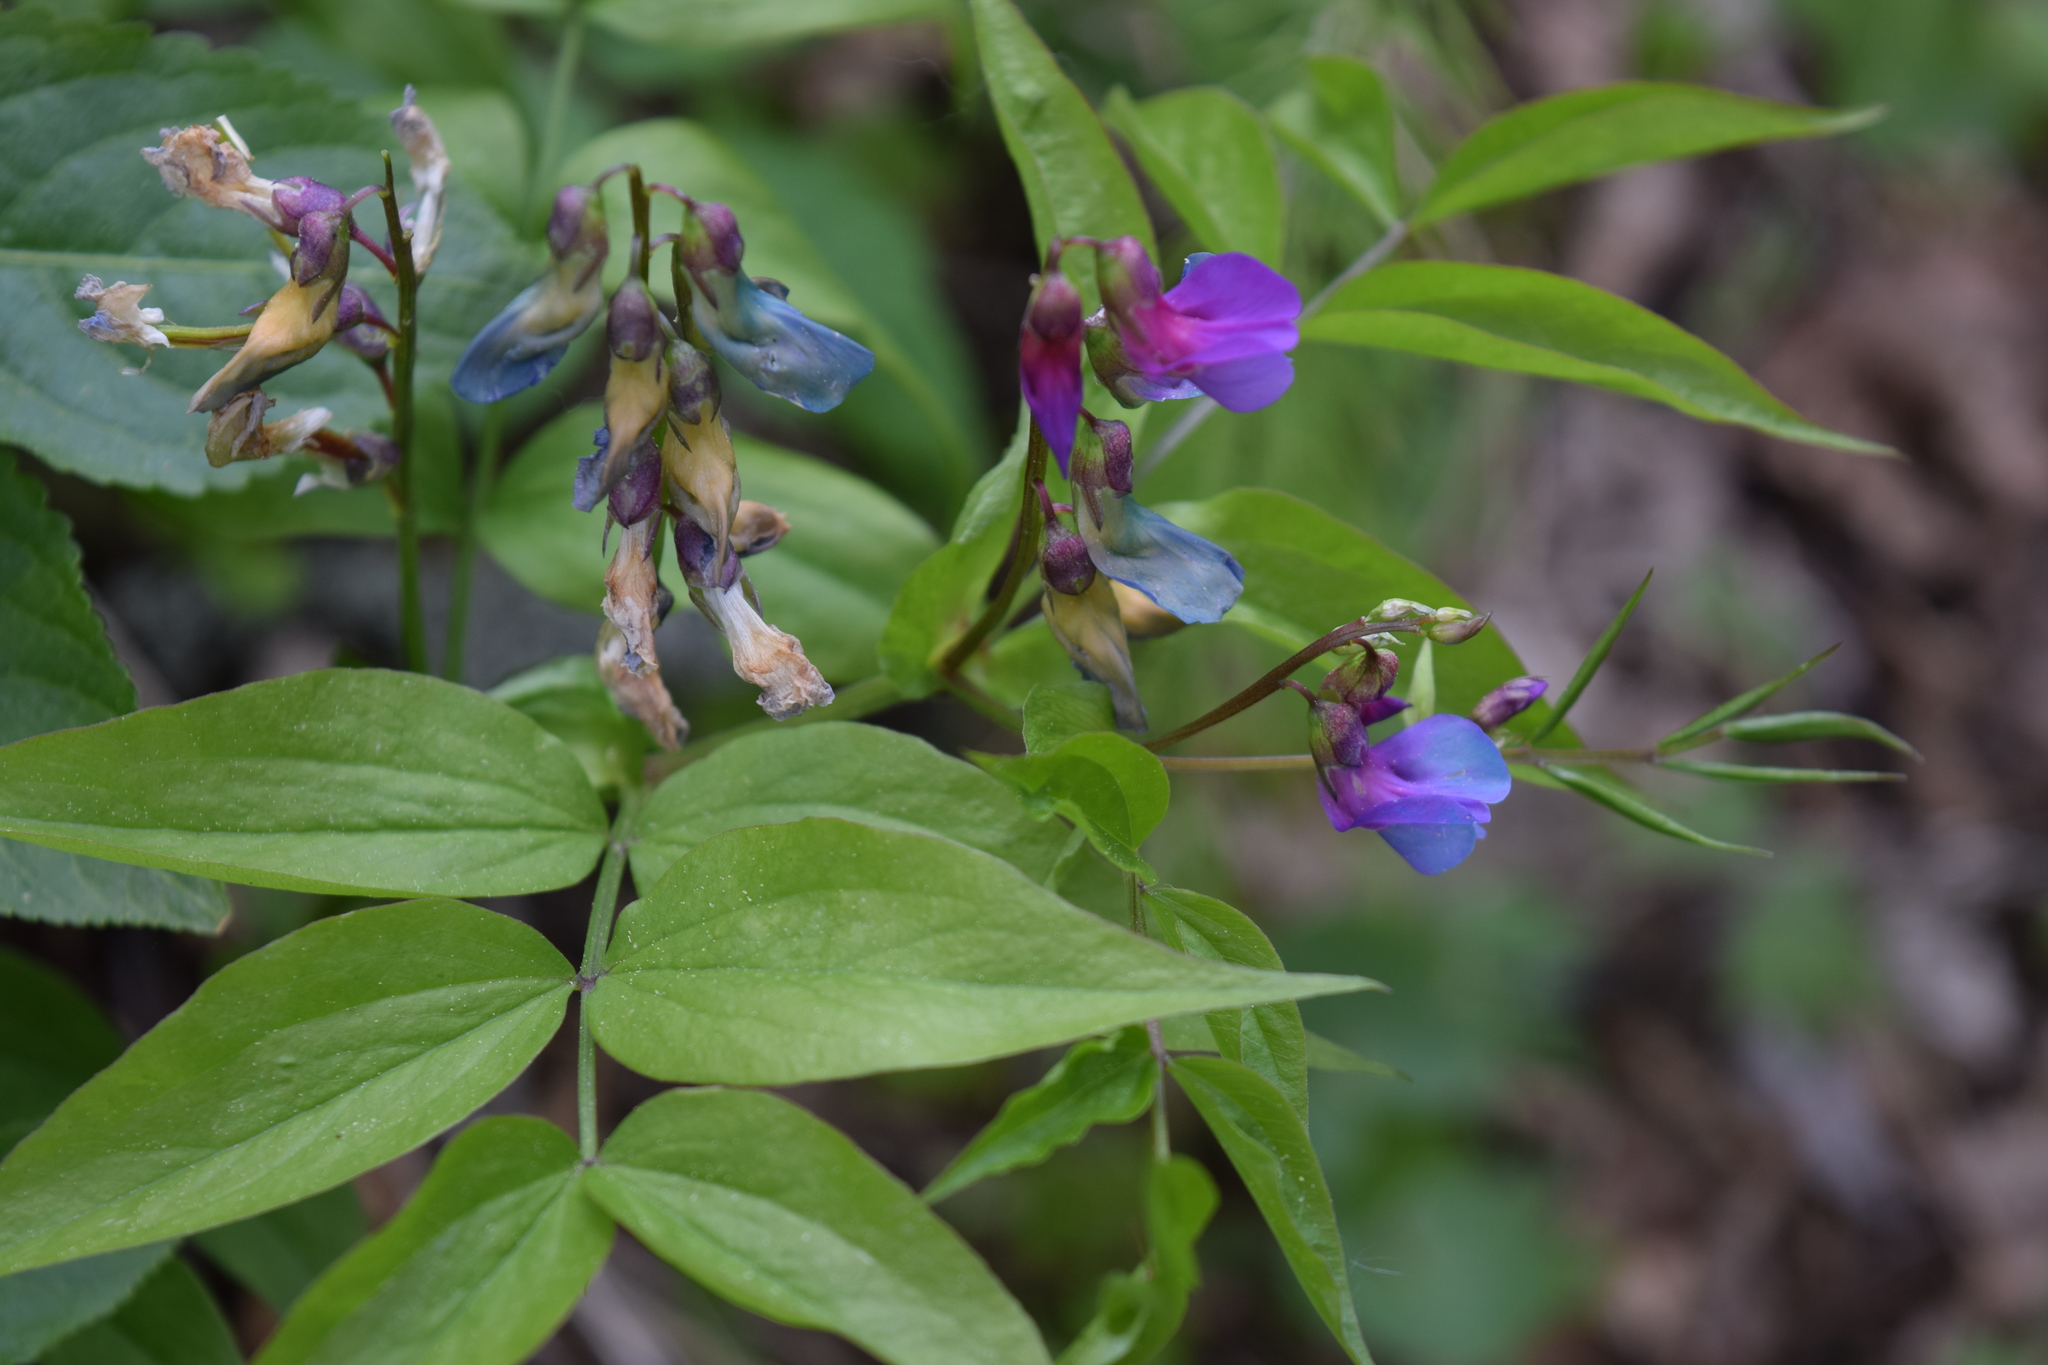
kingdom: Plantae
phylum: Tracheophyta
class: Magnoliopsida
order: Fabales
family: Fabaceae
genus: Lathyrus
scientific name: Lathyrus vernus
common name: Spring pea
